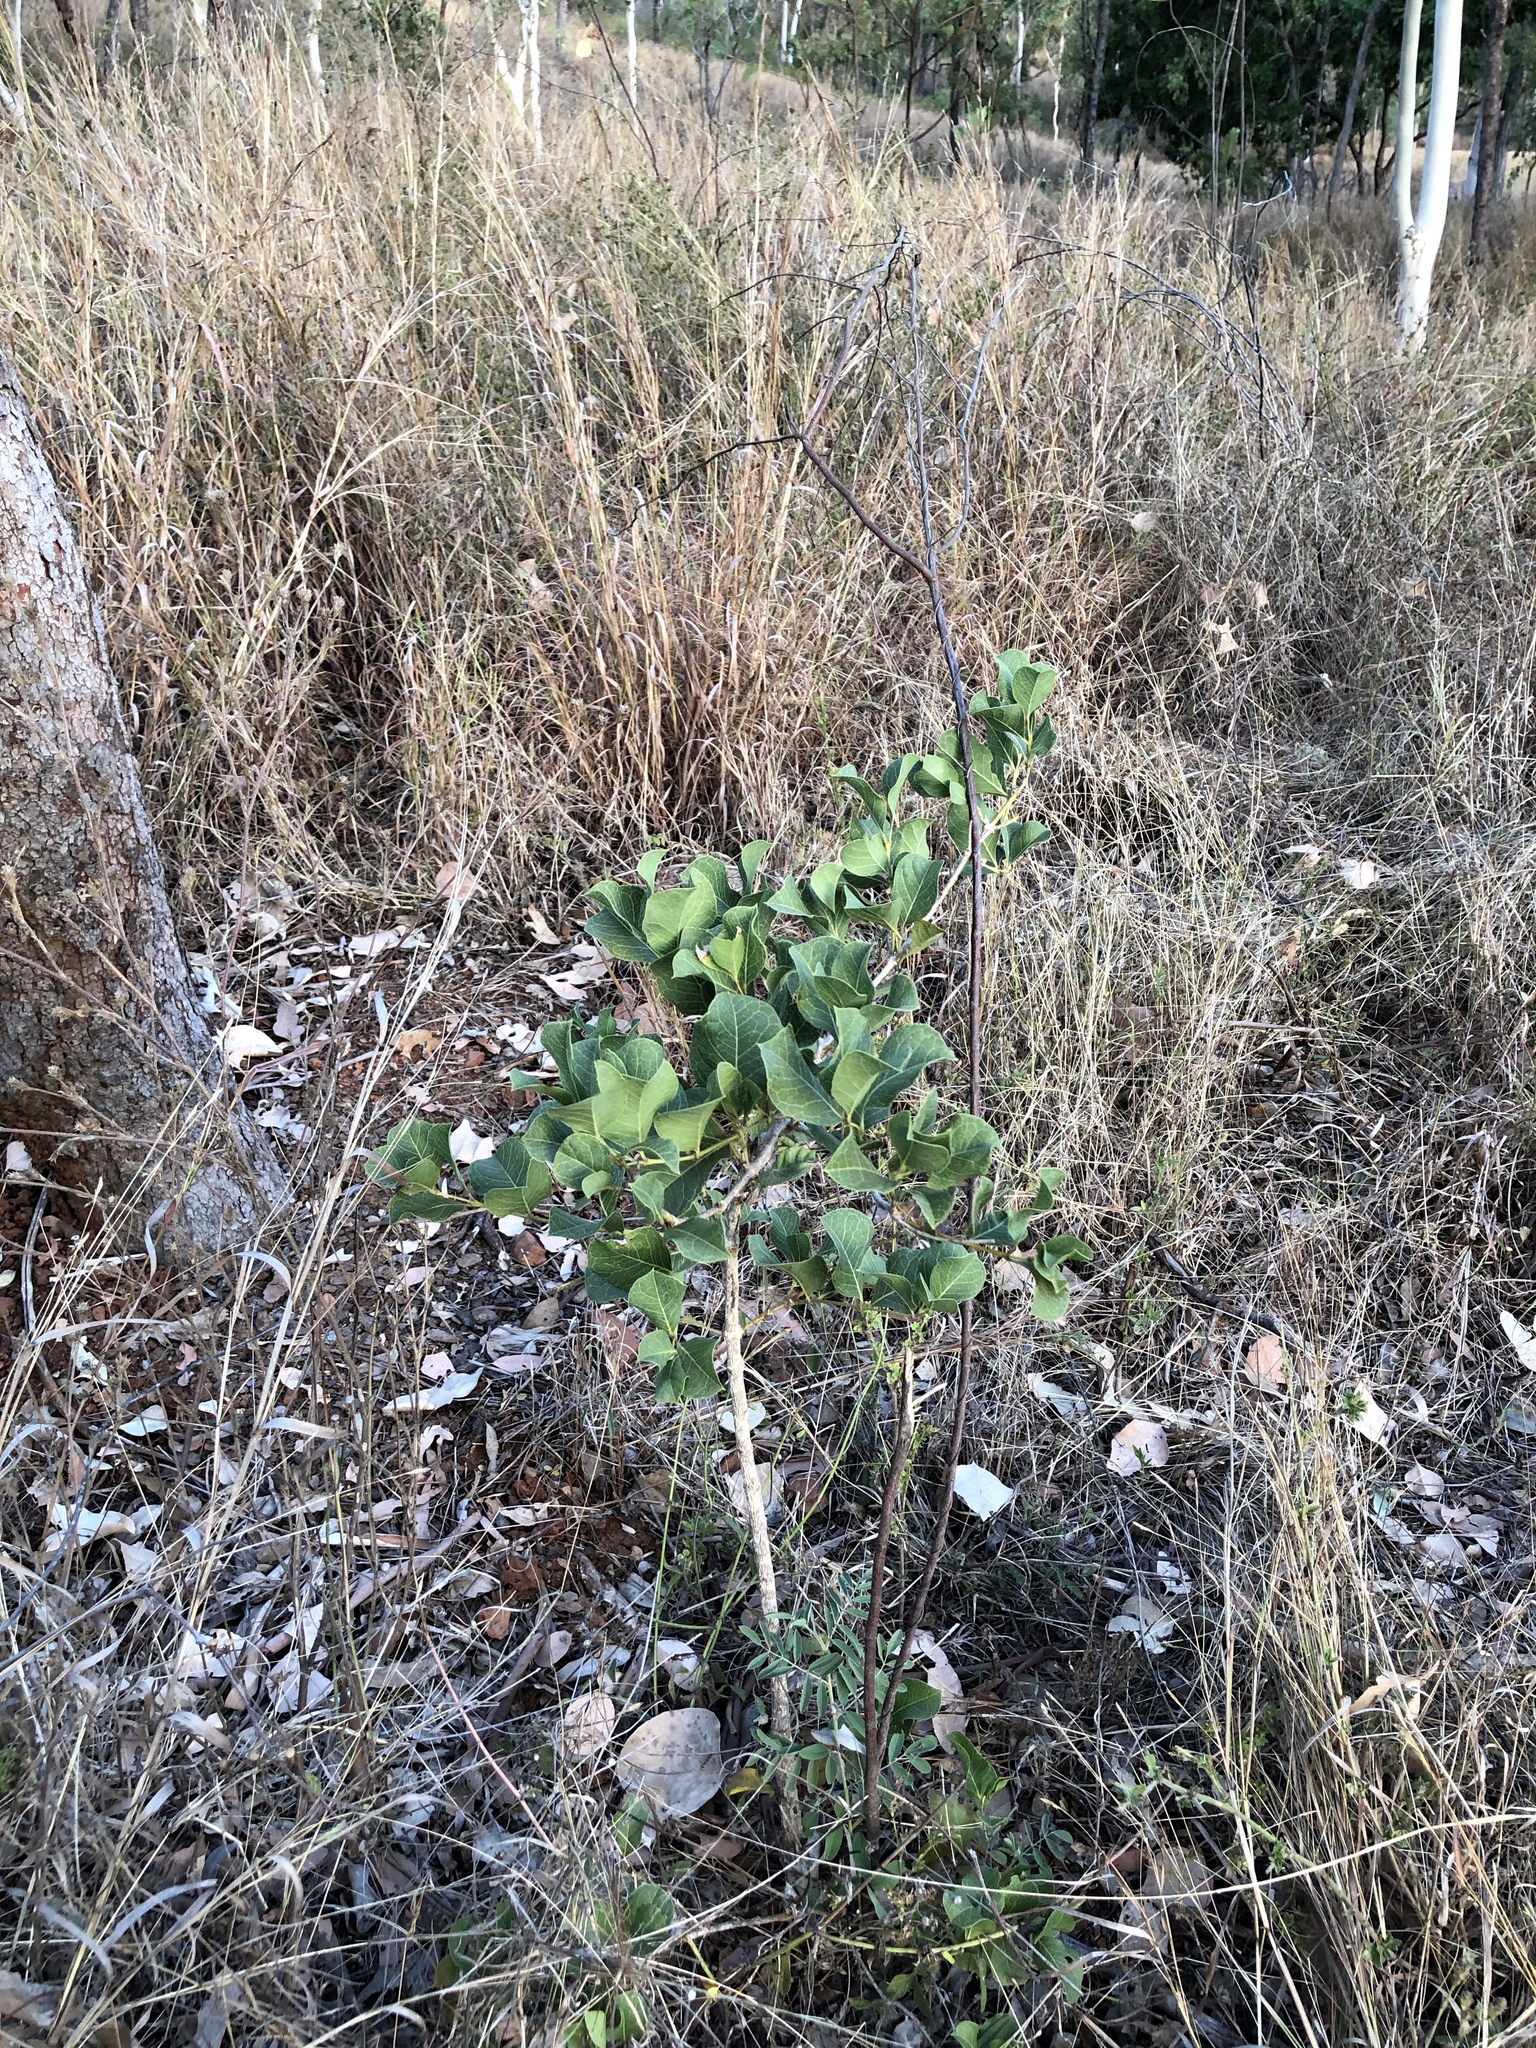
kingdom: Plantae
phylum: Tracheophyta
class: Magnoliopsida
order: Gentianales
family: Rubiaceae
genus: Coelospermum
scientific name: Coelospermum reticulatum
